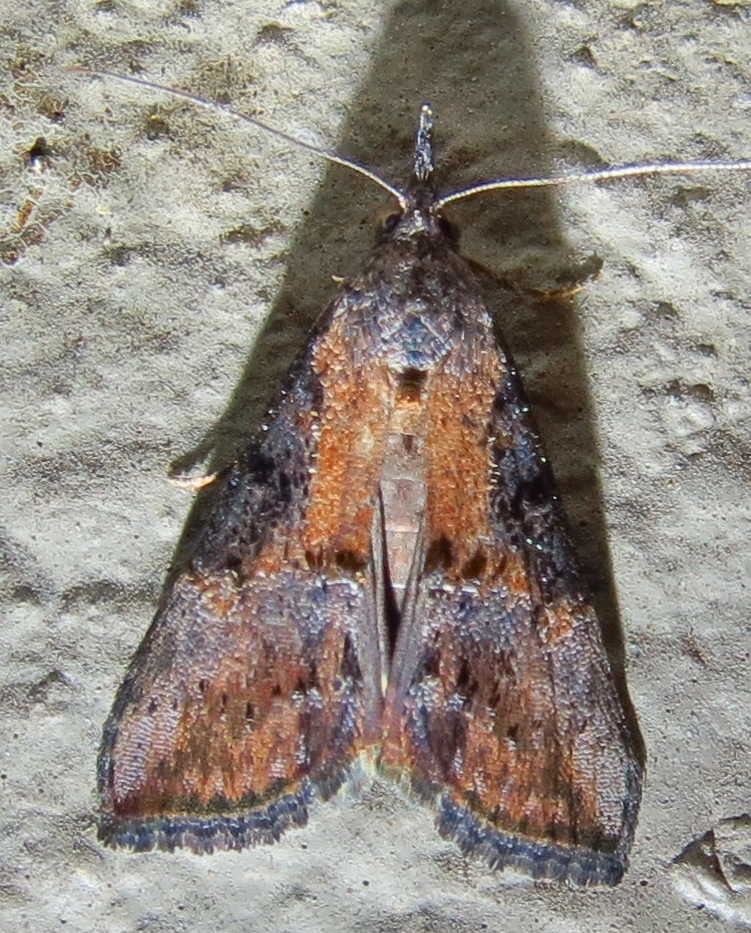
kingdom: Animalia
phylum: Arthropoda
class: Insecta
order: Lepidoptera
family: Erebidae
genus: Hypena
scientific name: Hypena scabra
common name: Green cloverworm
